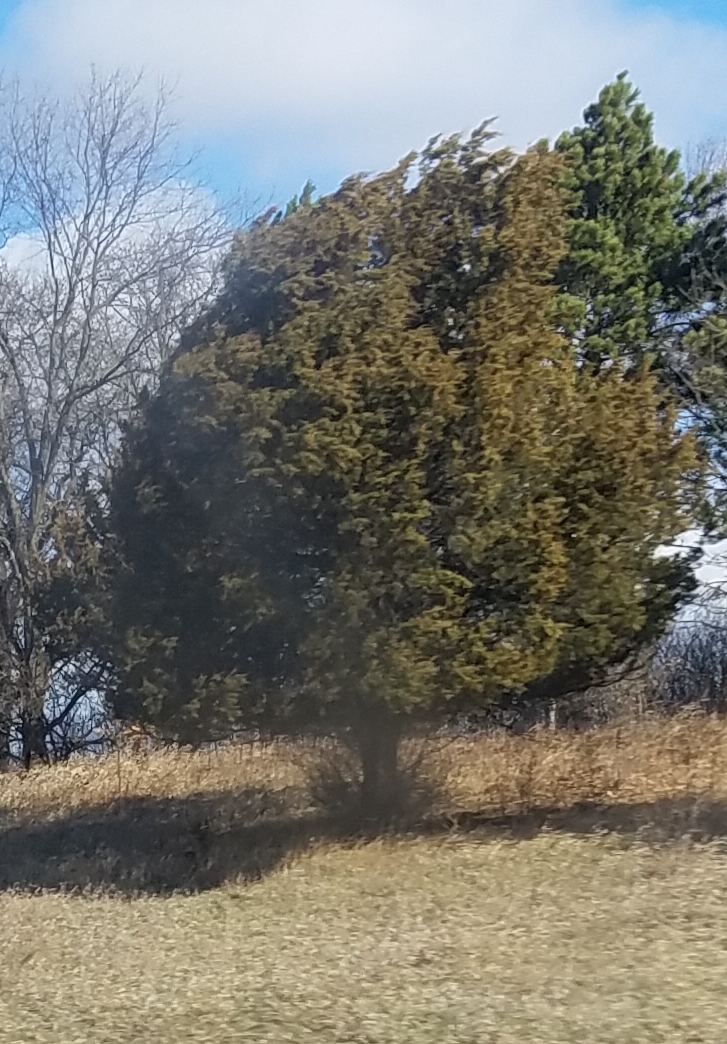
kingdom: Plantae
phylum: Tracheophyta
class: Pinopsida
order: Pinales
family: Cupressaceae
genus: Juniperus
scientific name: Juniperus virginiana
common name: Red juniper
